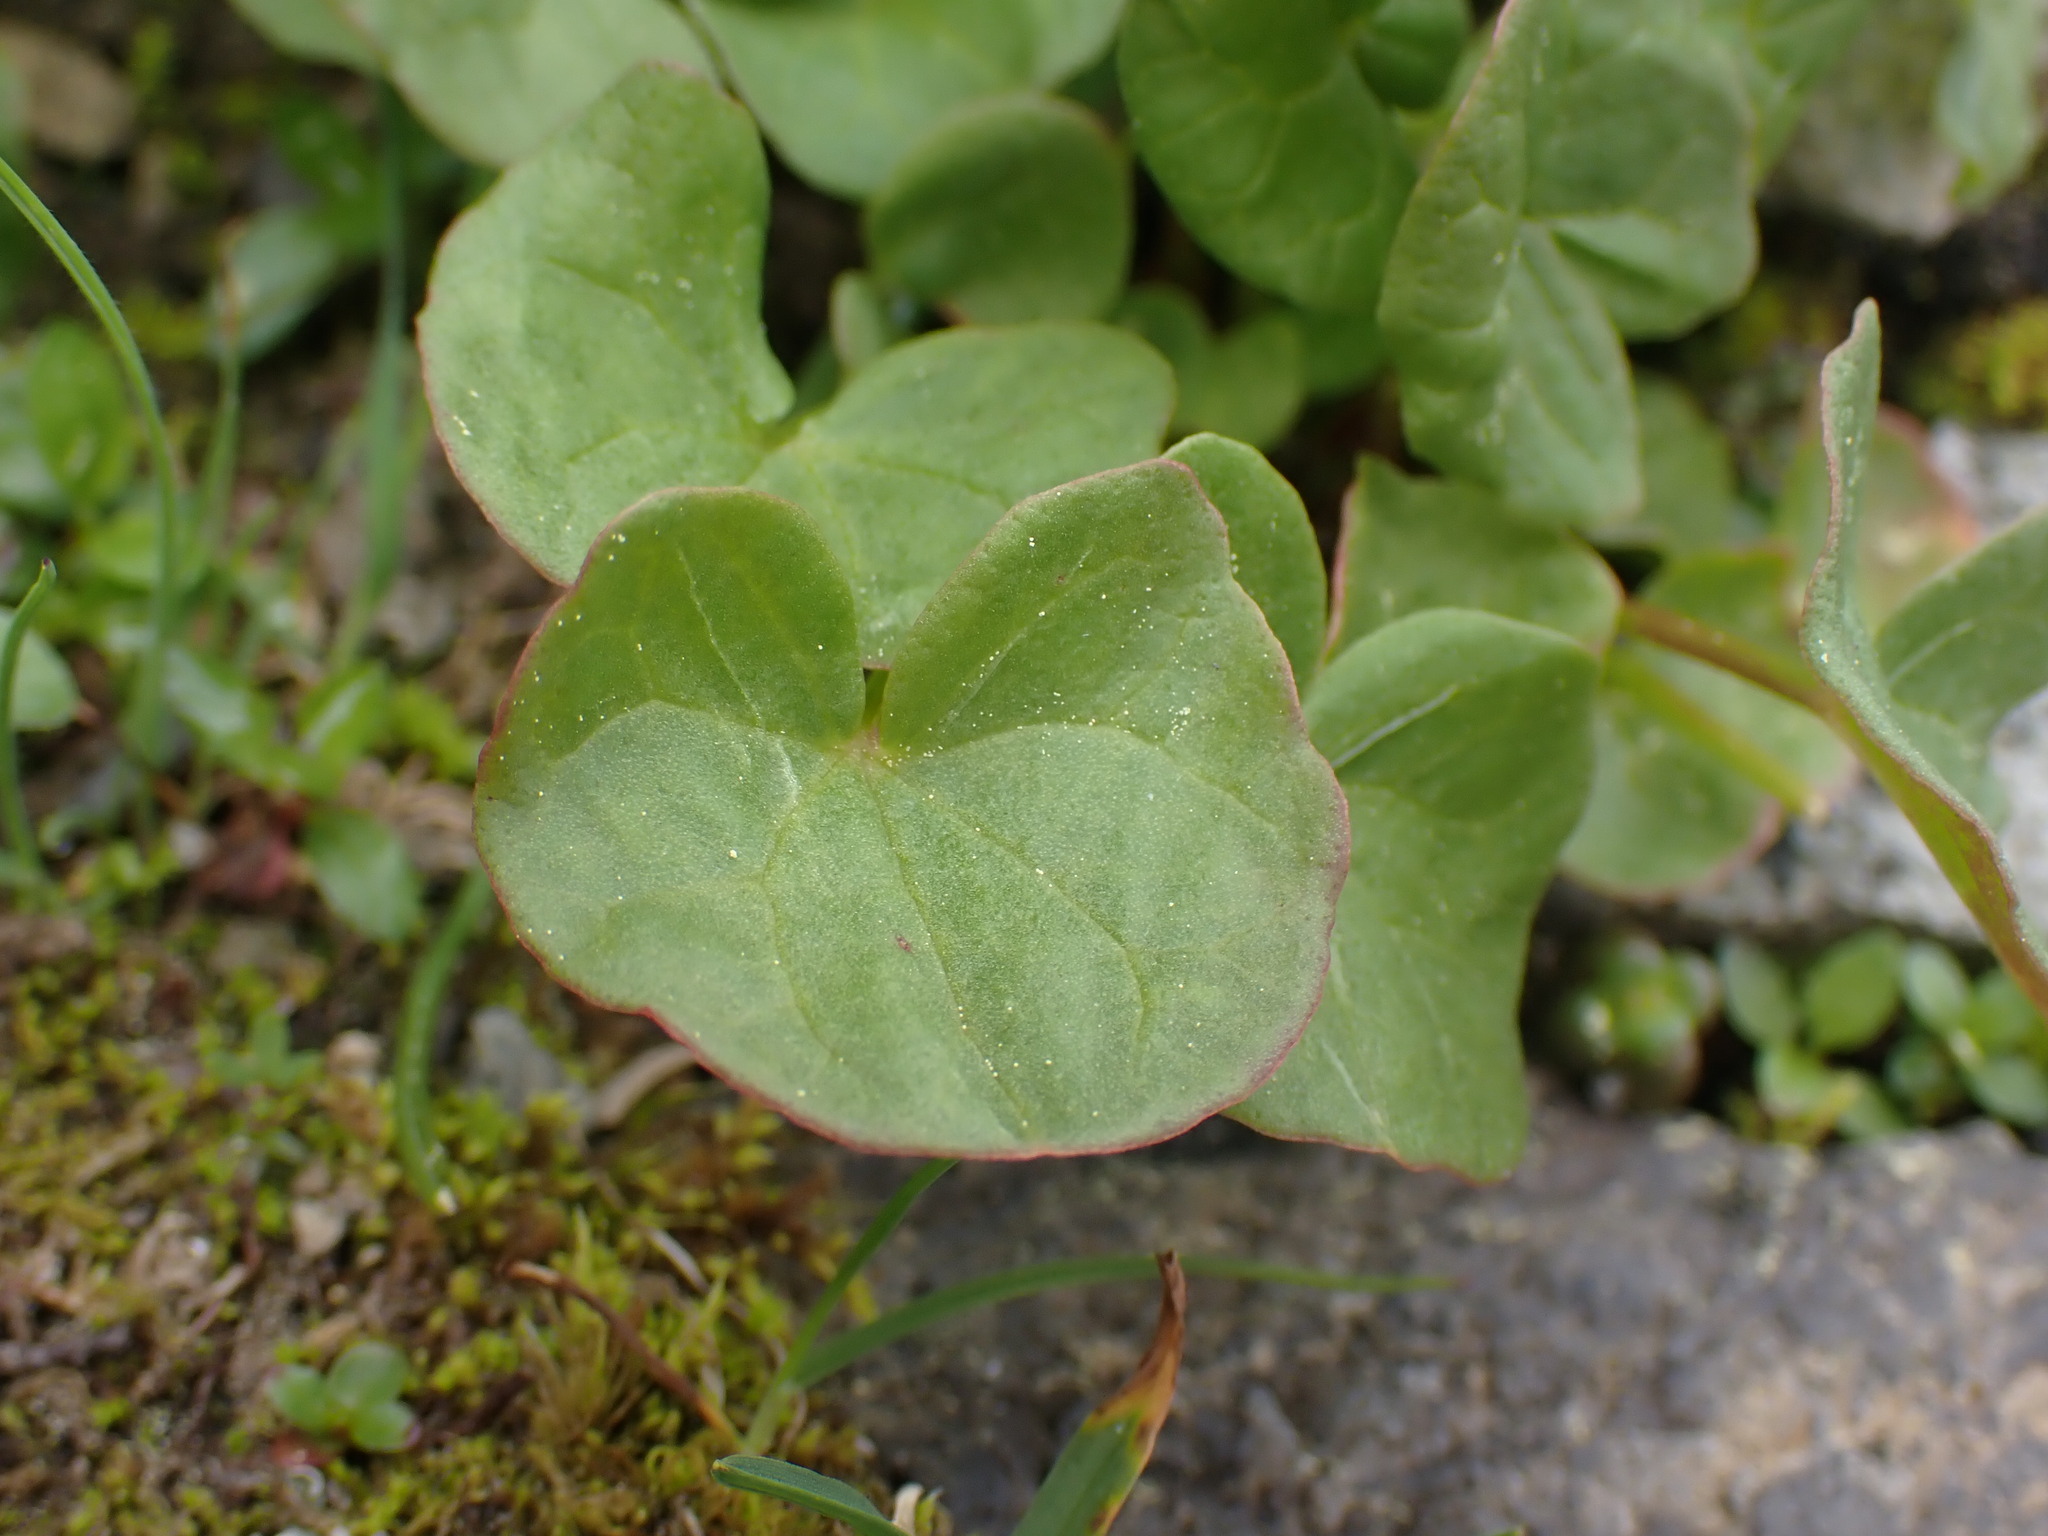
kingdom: Plantae
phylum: Tracheophyta
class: Magnoliopsida
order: Caryophyllales
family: Polygonaceae
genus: Oxyria
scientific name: Oxyria digyna
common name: Alpine mountain-sorrel
